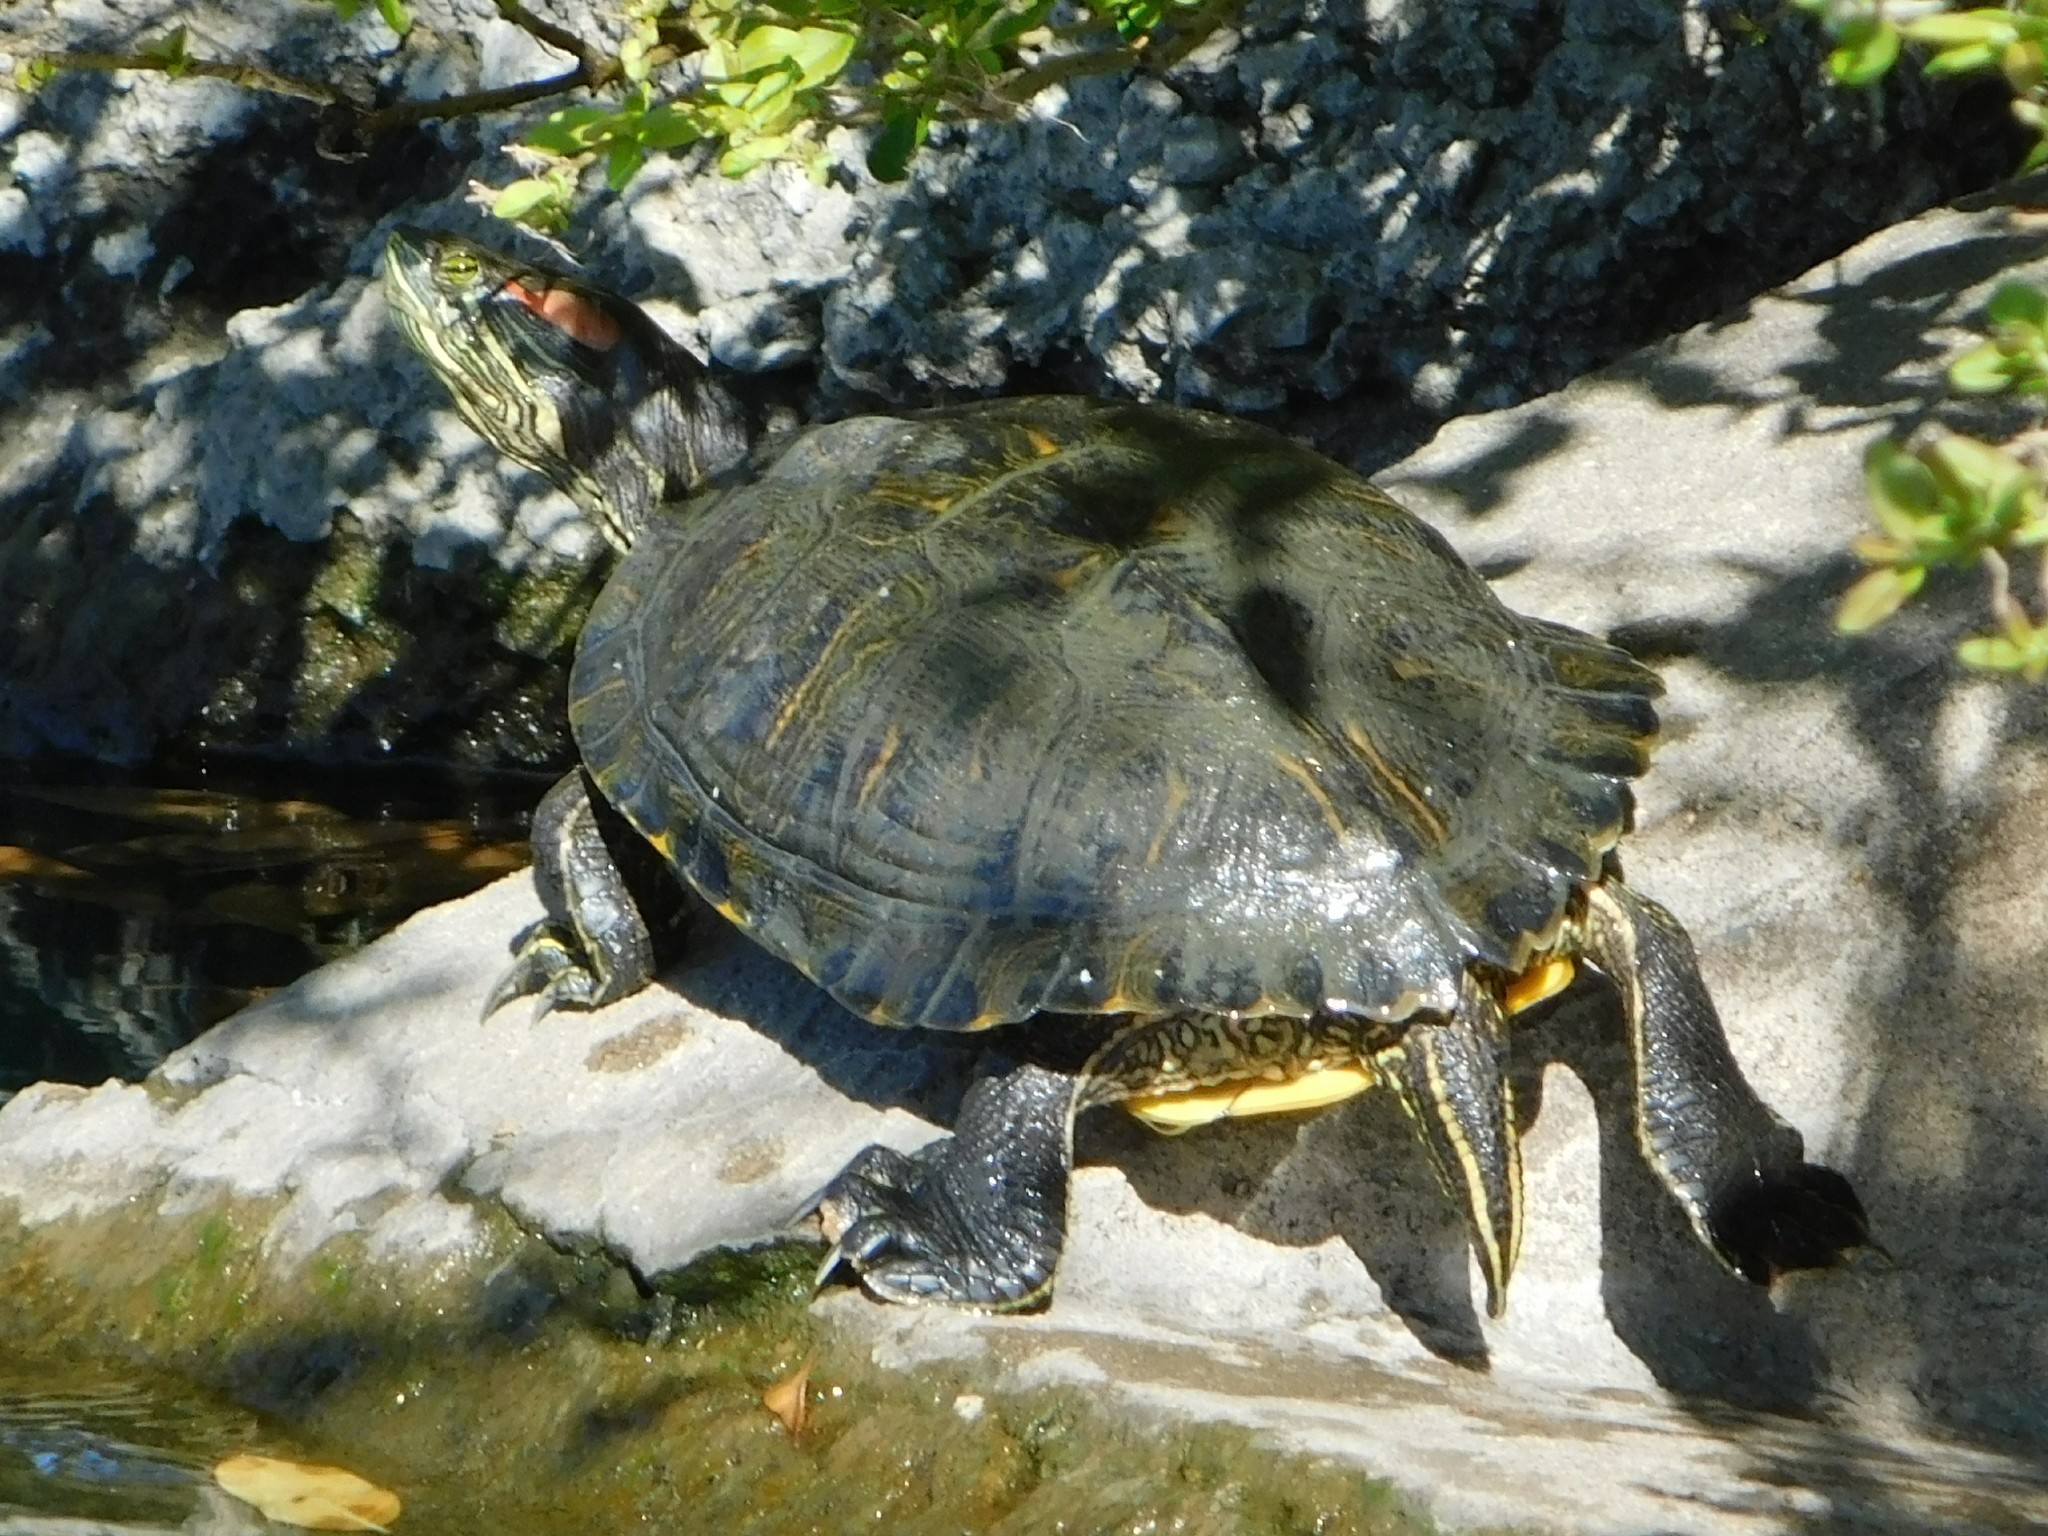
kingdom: Animalia
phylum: Chordata
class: Testudines
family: Emydidae
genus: Trachemys
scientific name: Trachemys scripta
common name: Slider
